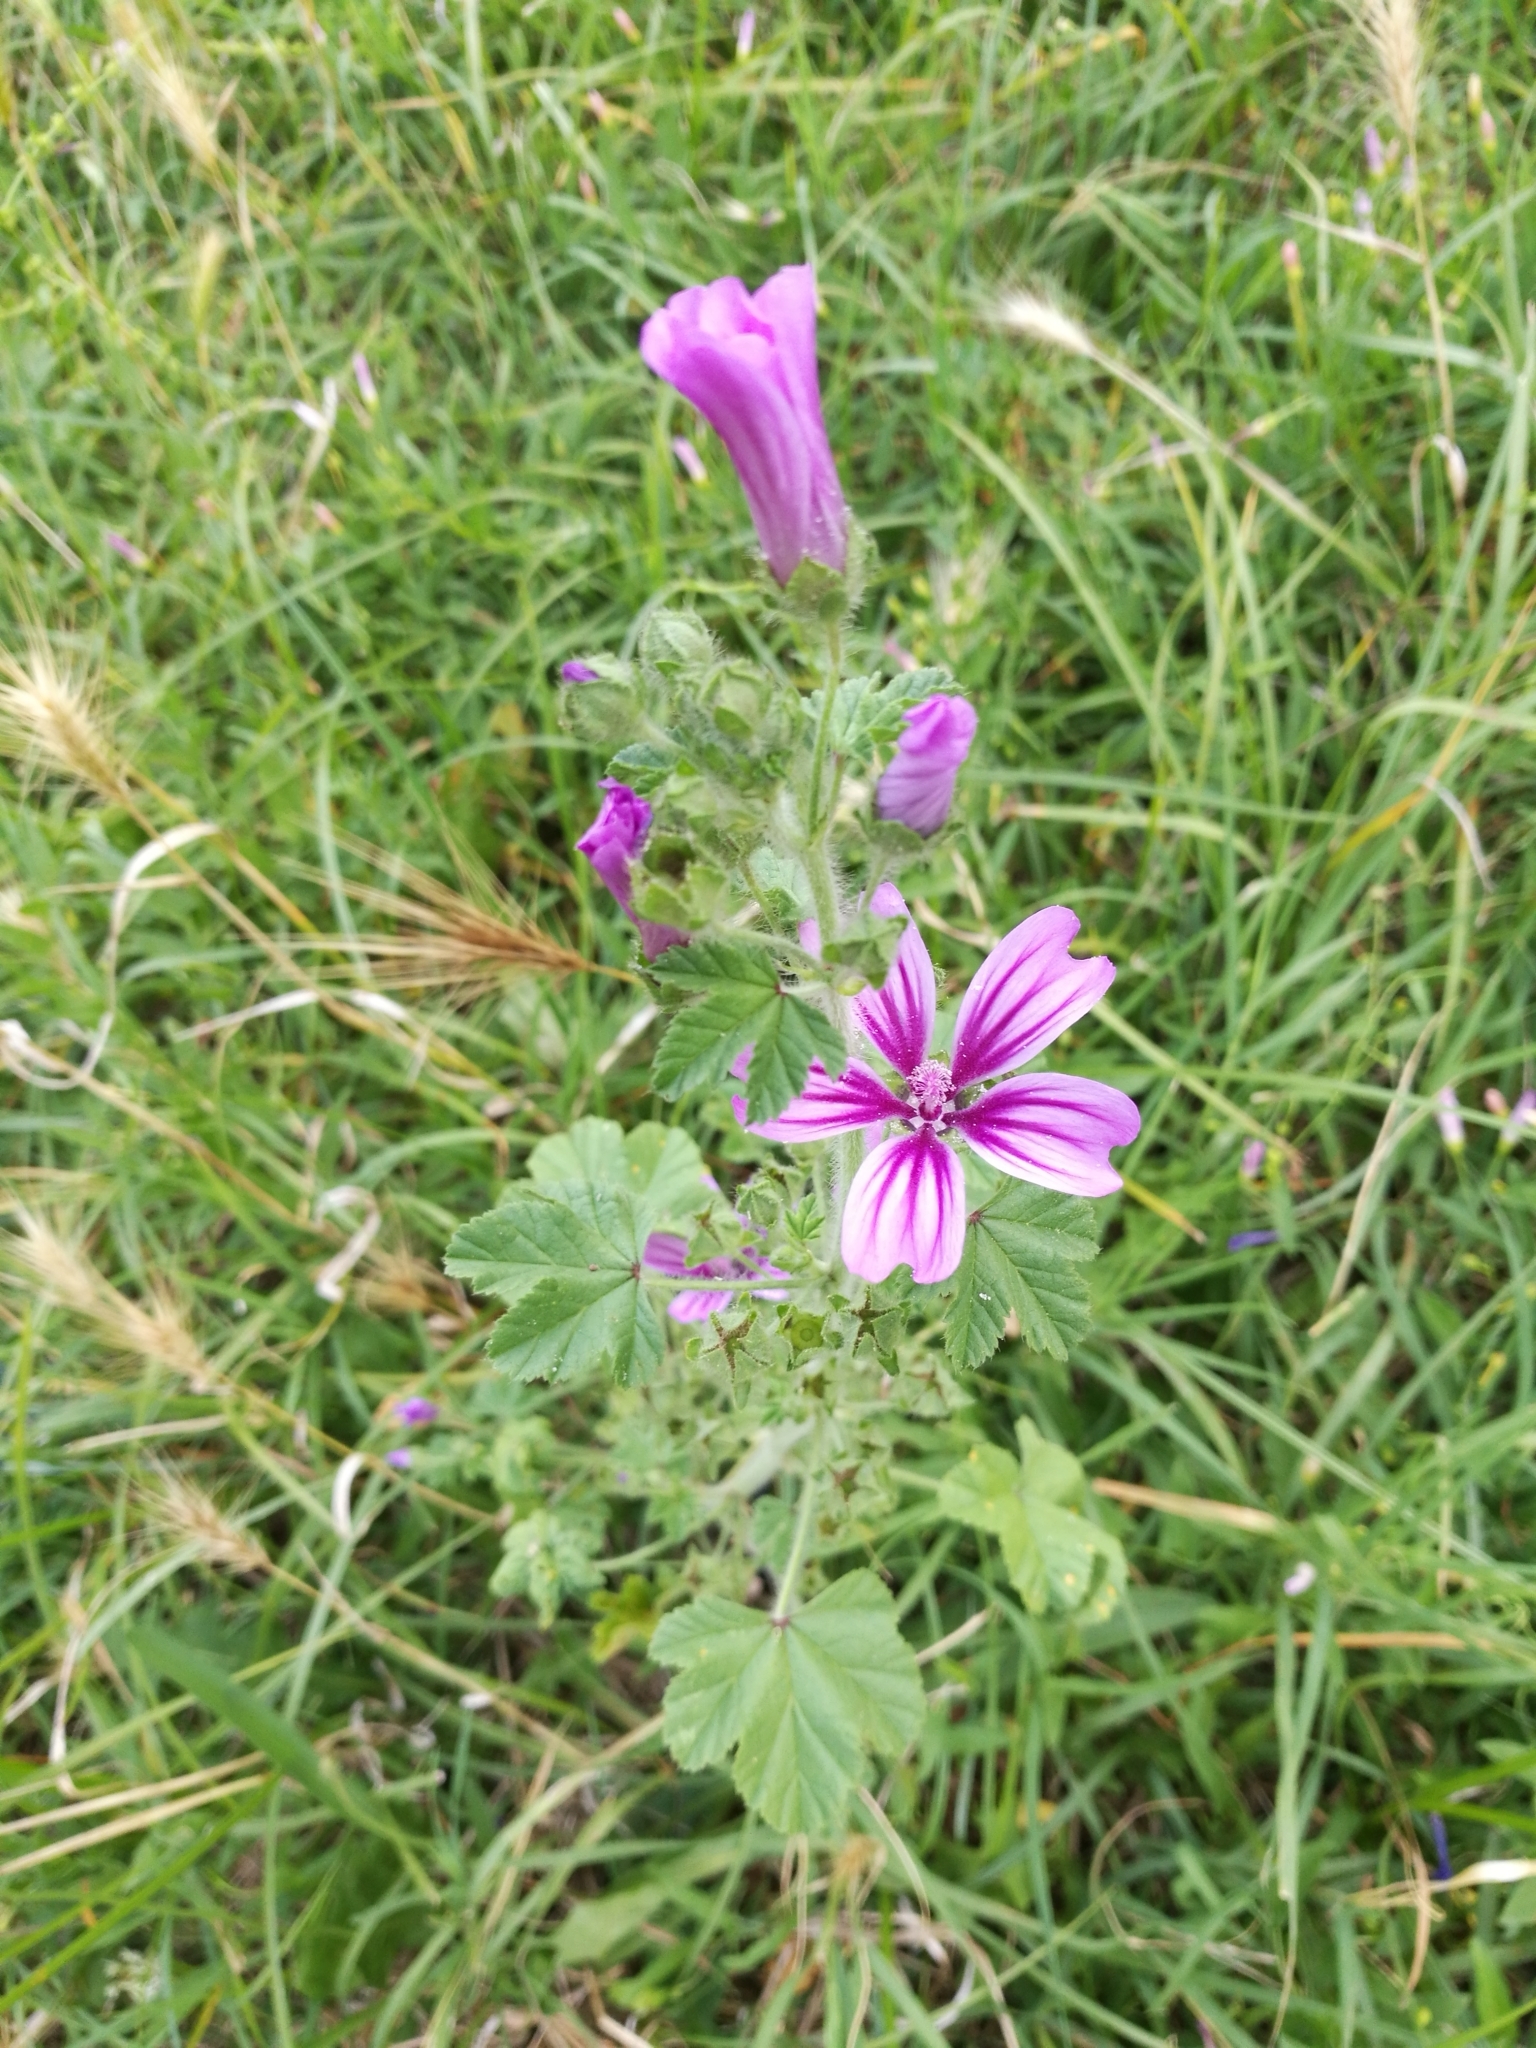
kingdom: Plantae
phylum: Tracheophyta
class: Magnoliopsida
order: Malvales
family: Malvaceae
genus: Malva
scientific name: Malva sylvestris
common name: Common mallow
